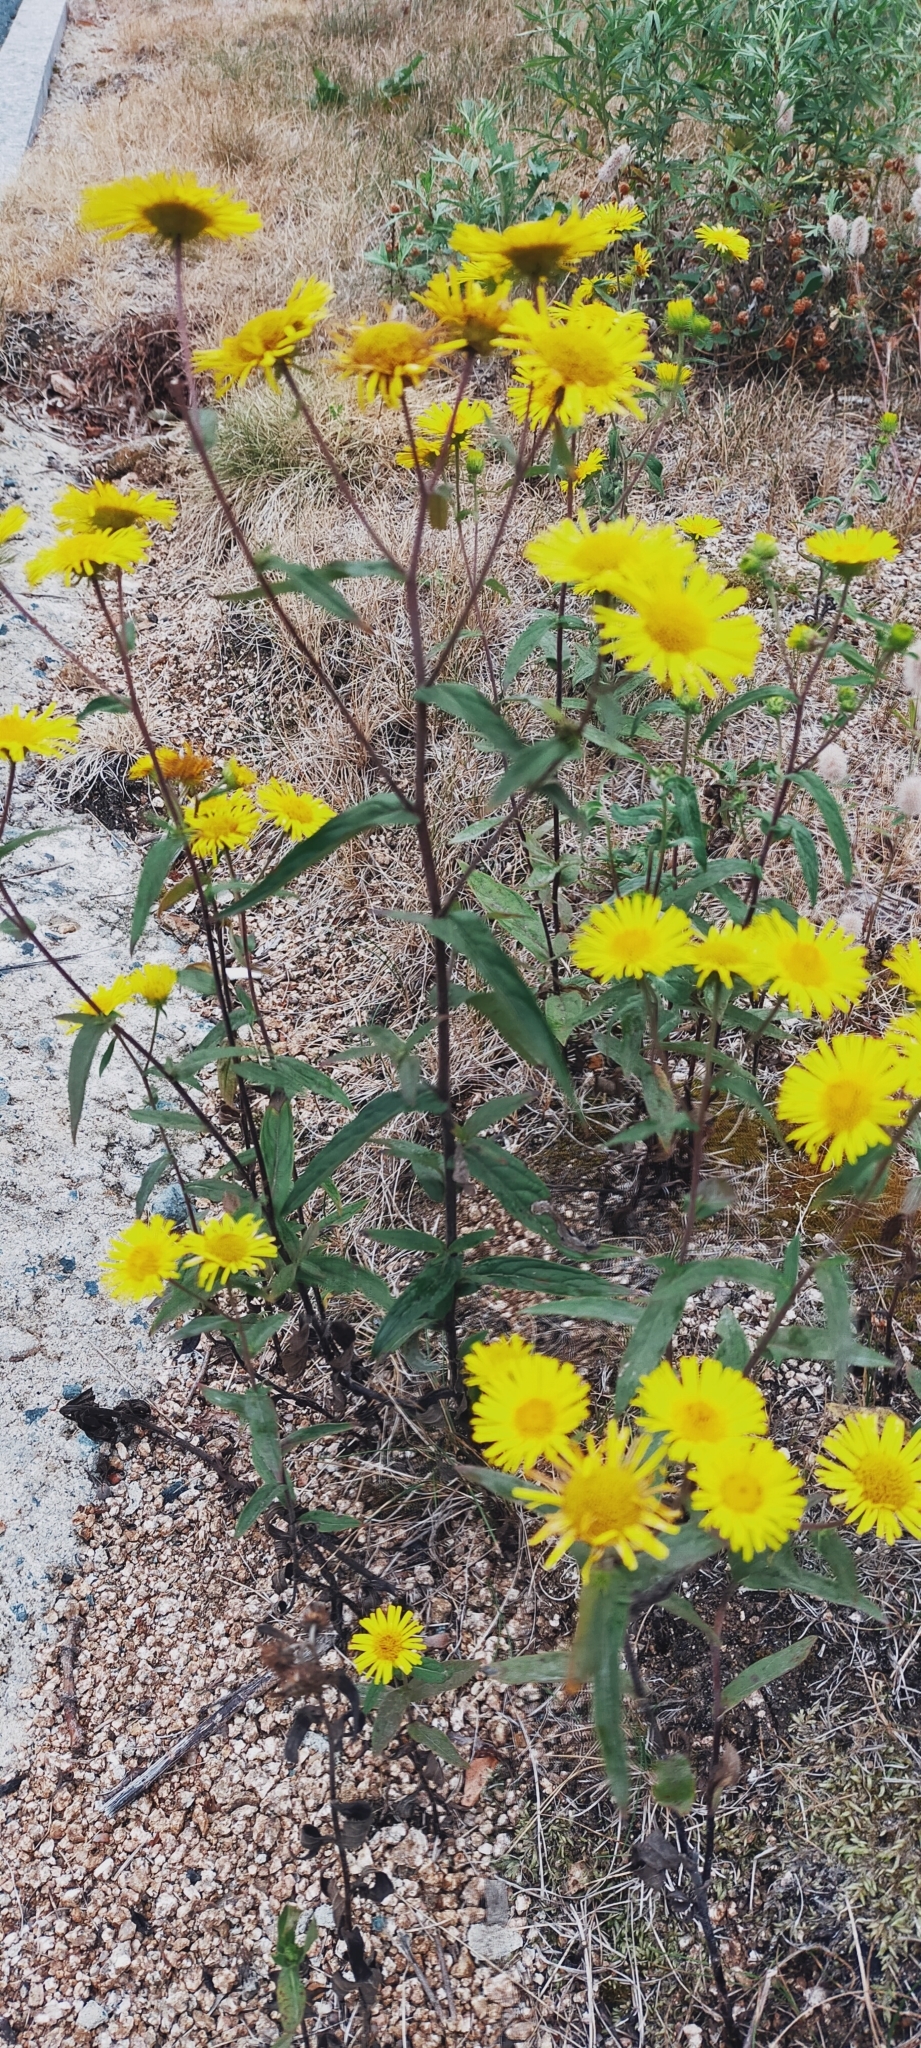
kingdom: Plantae
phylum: Tracheophyta
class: Magnoliopsida
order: Asterales
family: Asteraceae
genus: Inula
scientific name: Inula japonica
